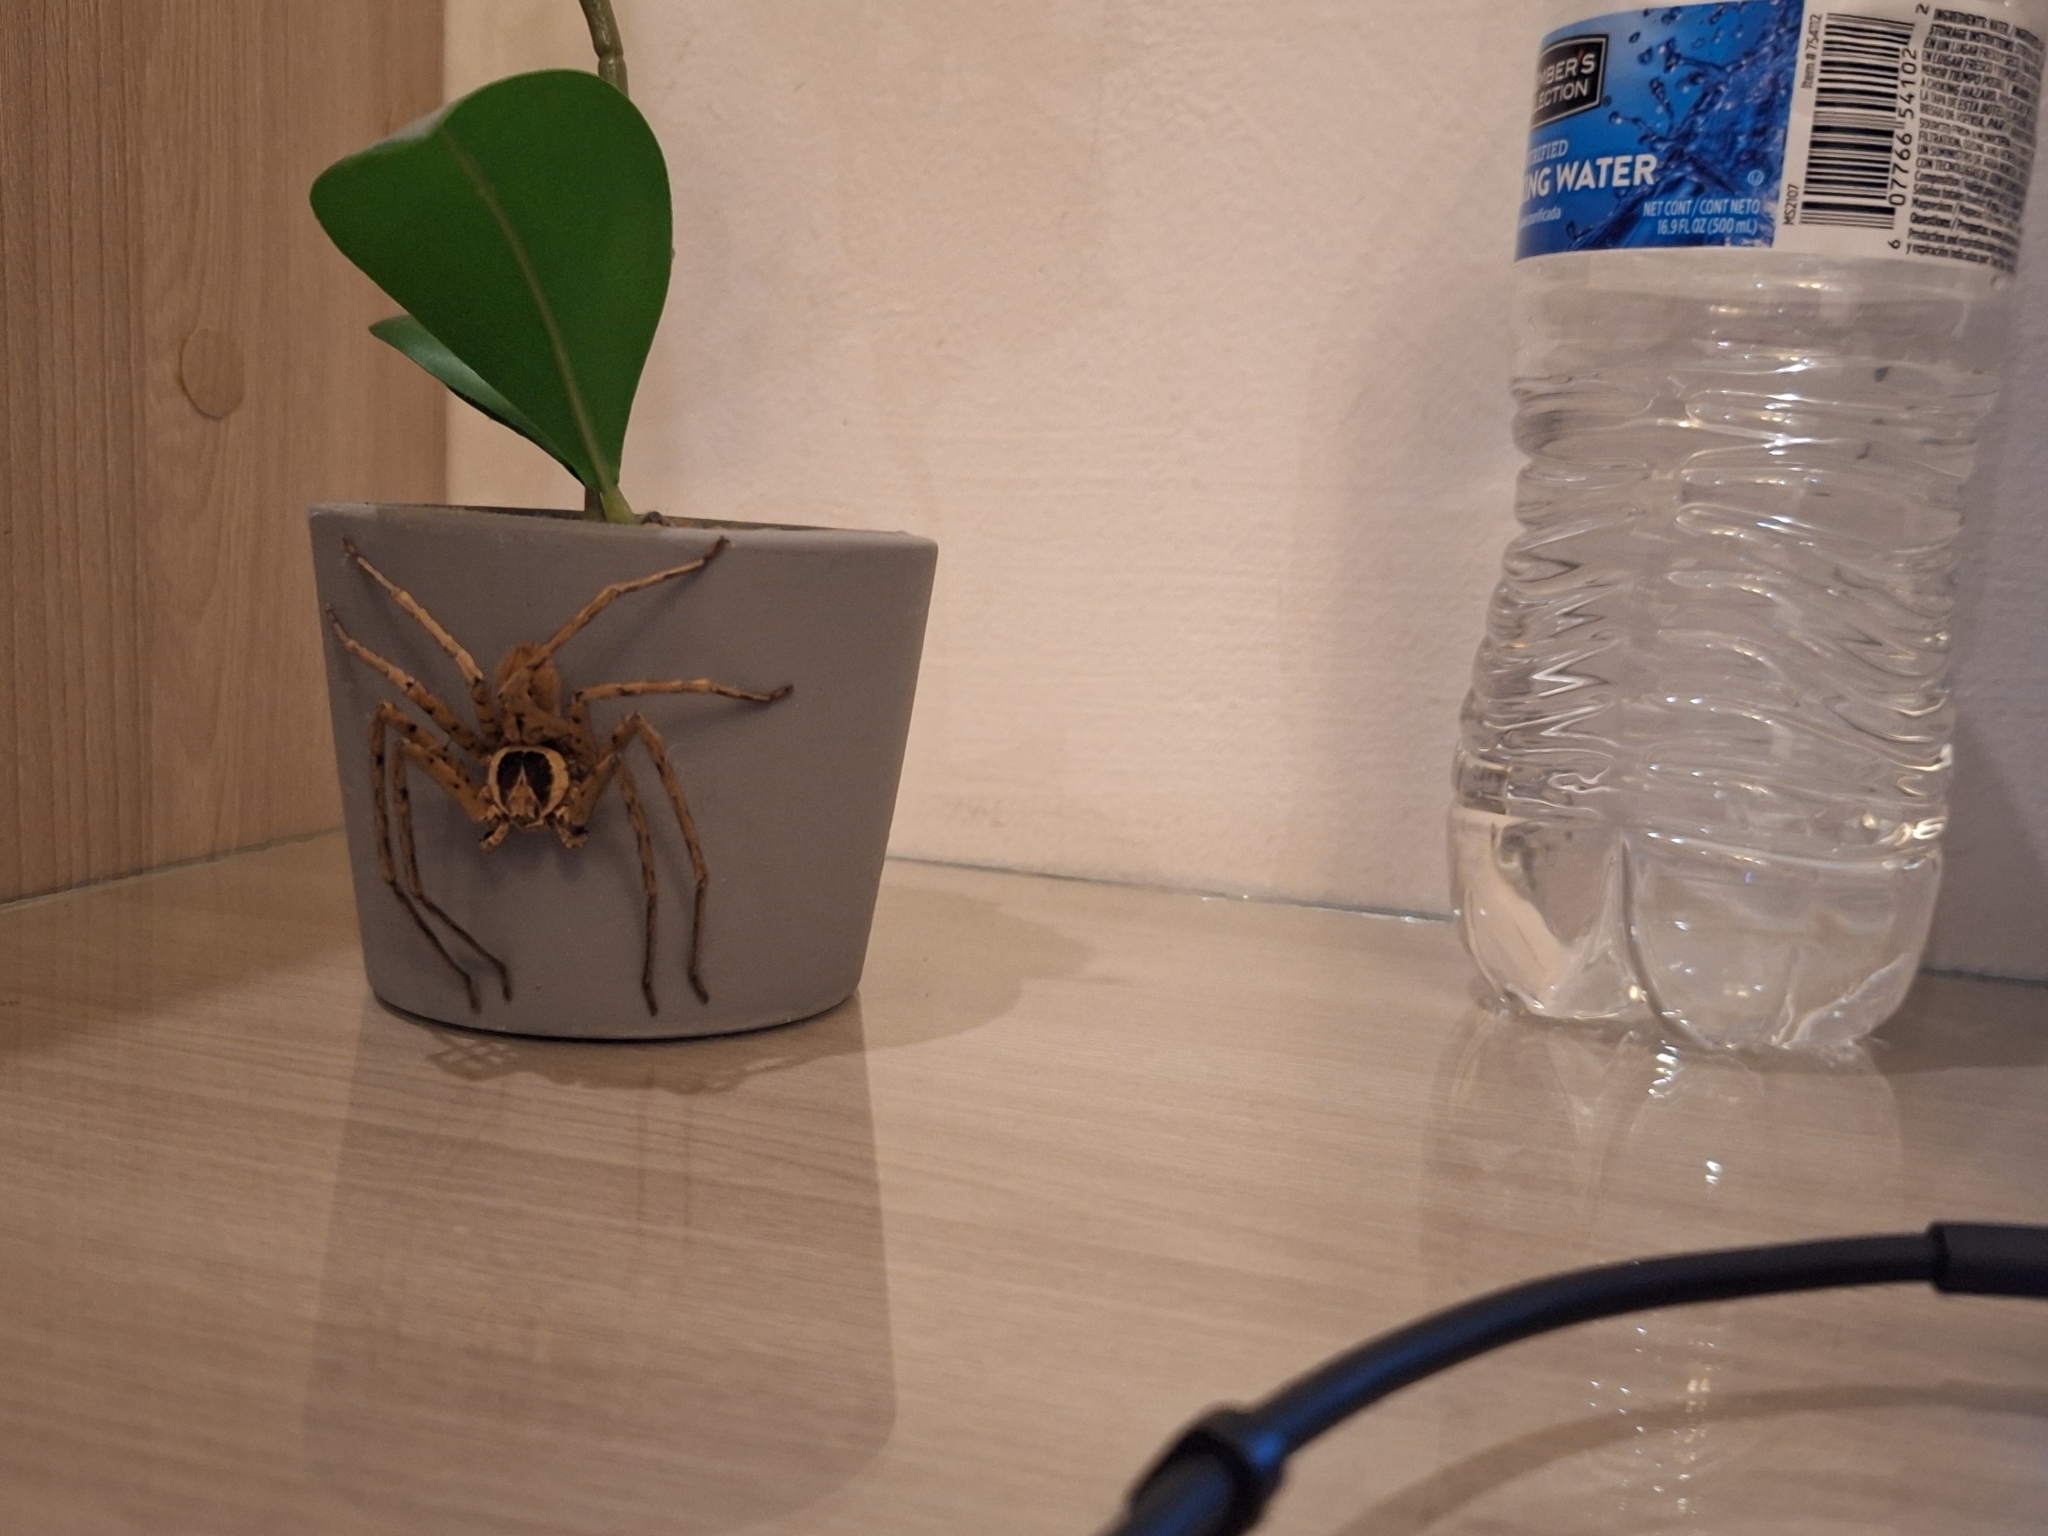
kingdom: Animalia
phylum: Arthropoda
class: Arachnida
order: Araneae
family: Sparassidae
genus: Heteropoda
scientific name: Heteropoda venatoria
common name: Huntsman spider
